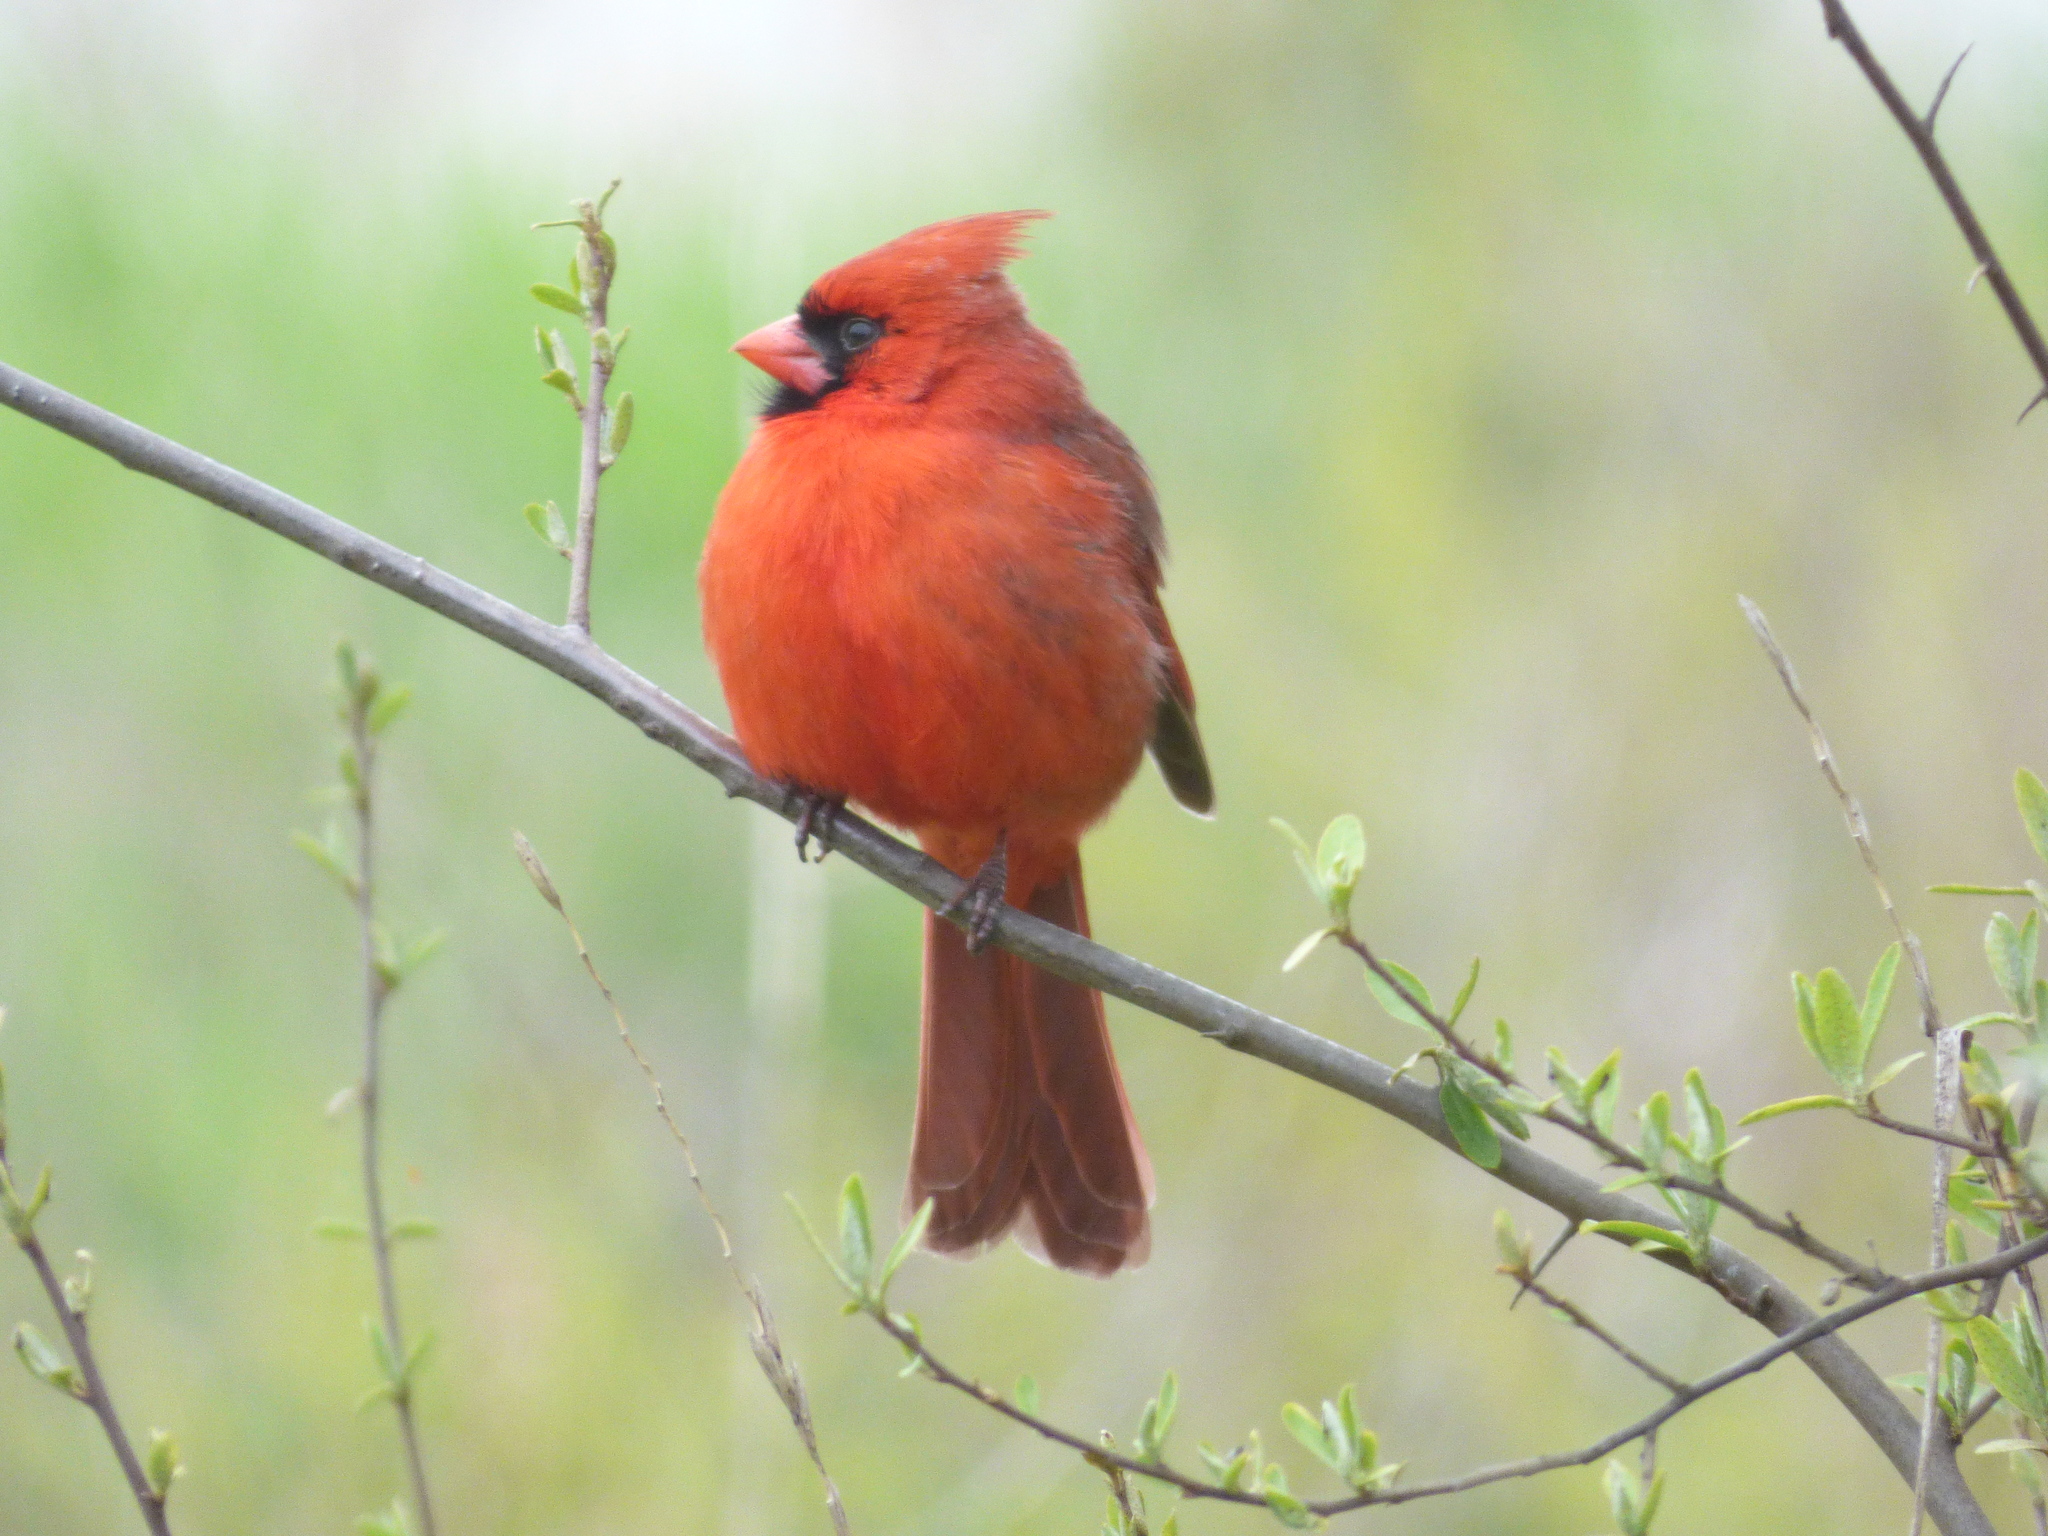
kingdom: Animalia
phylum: Chordata
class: Aves
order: Passeriformes
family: Cardinalidae
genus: Cardinalis
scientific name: Cardinalis cardinalis
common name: Northern cardinal
